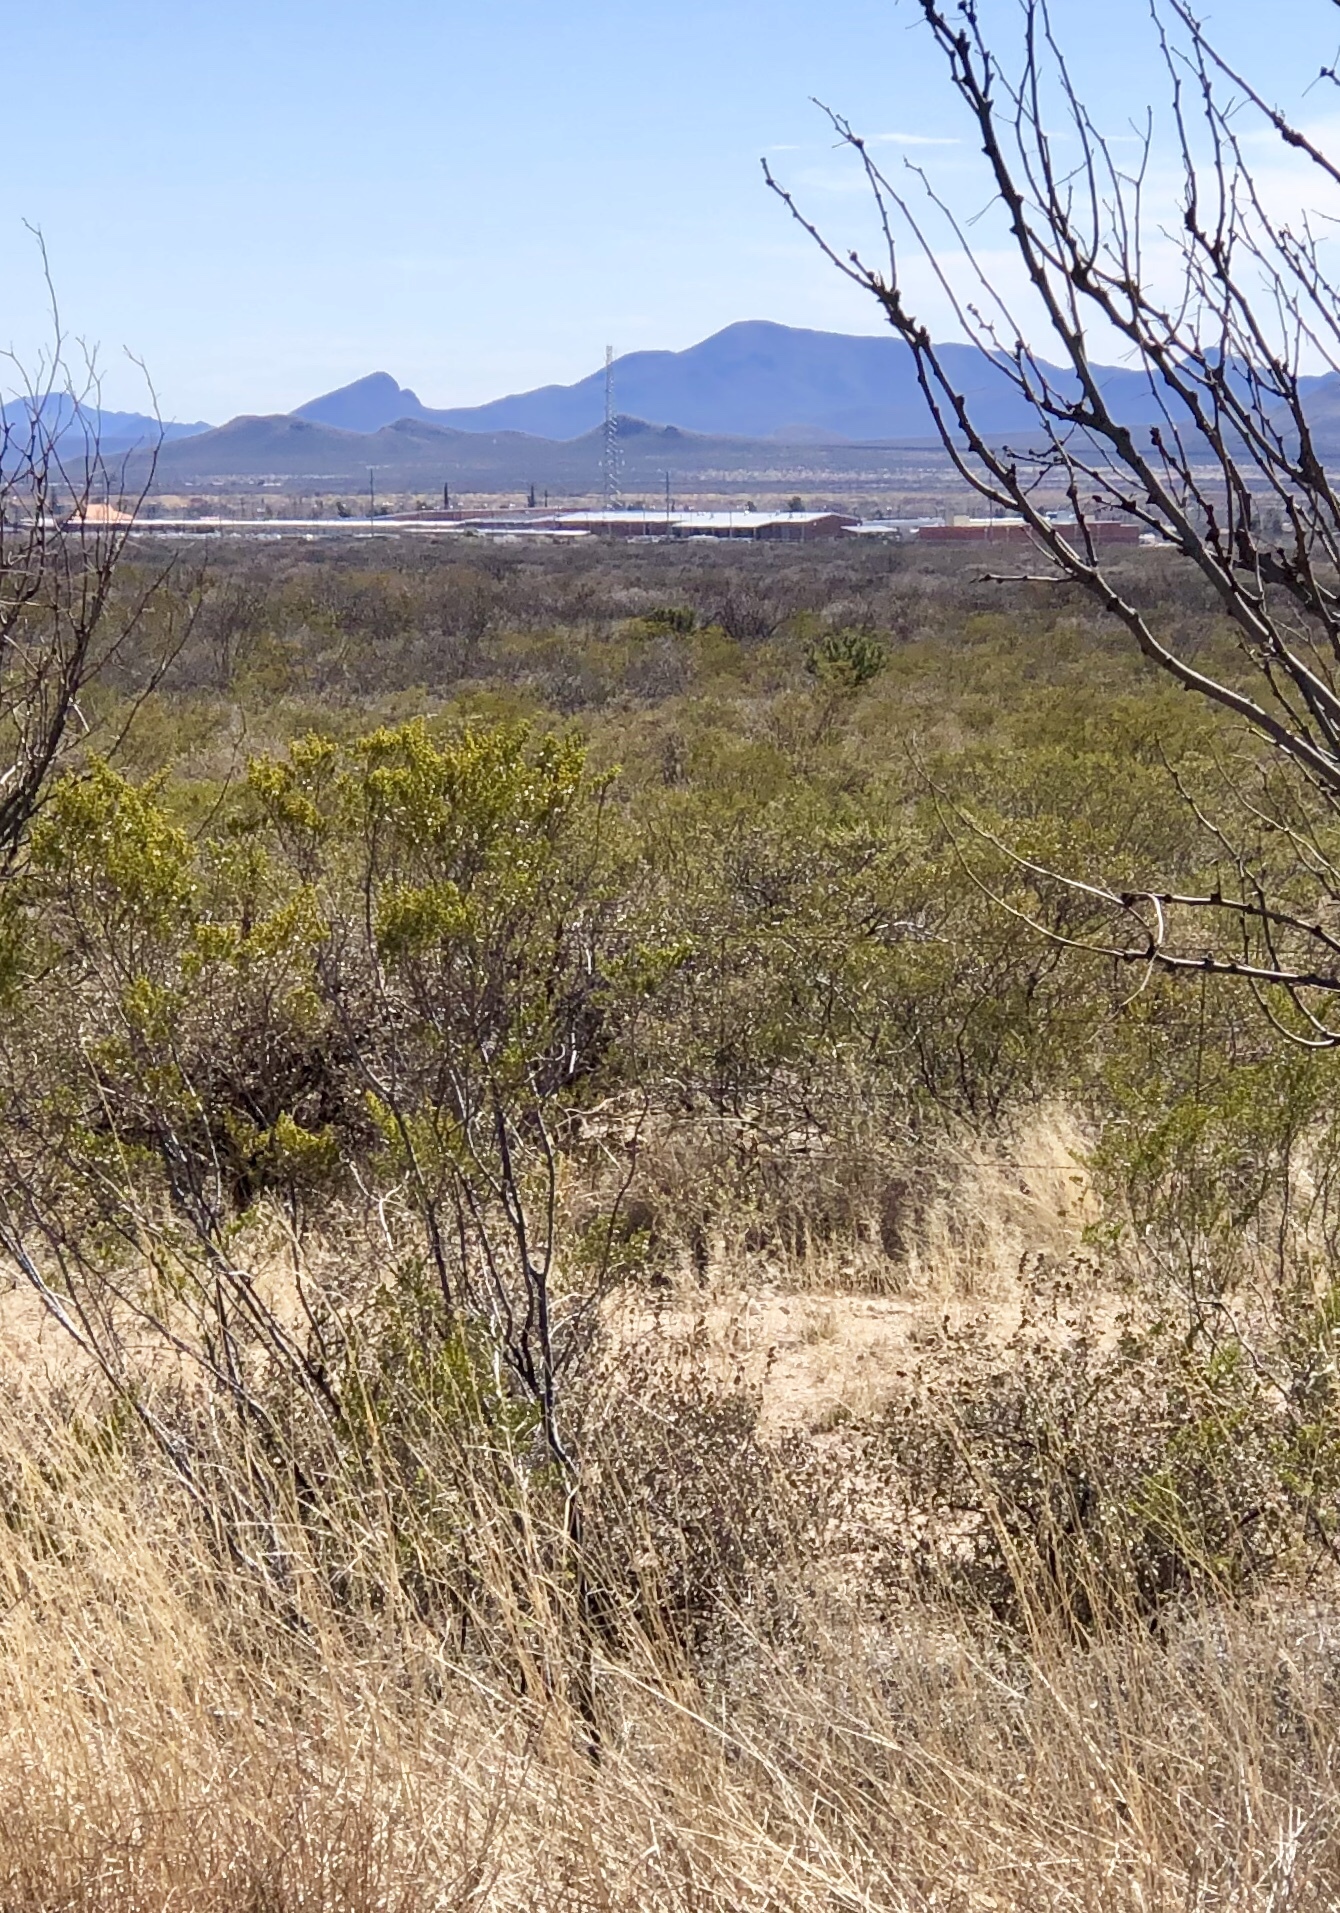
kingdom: Plantae
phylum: Tracheophyta
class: Magnoliopsida
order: Zygophyllales
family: Zygophyllaceae
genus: Larrea
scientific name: Larrea tridentata
